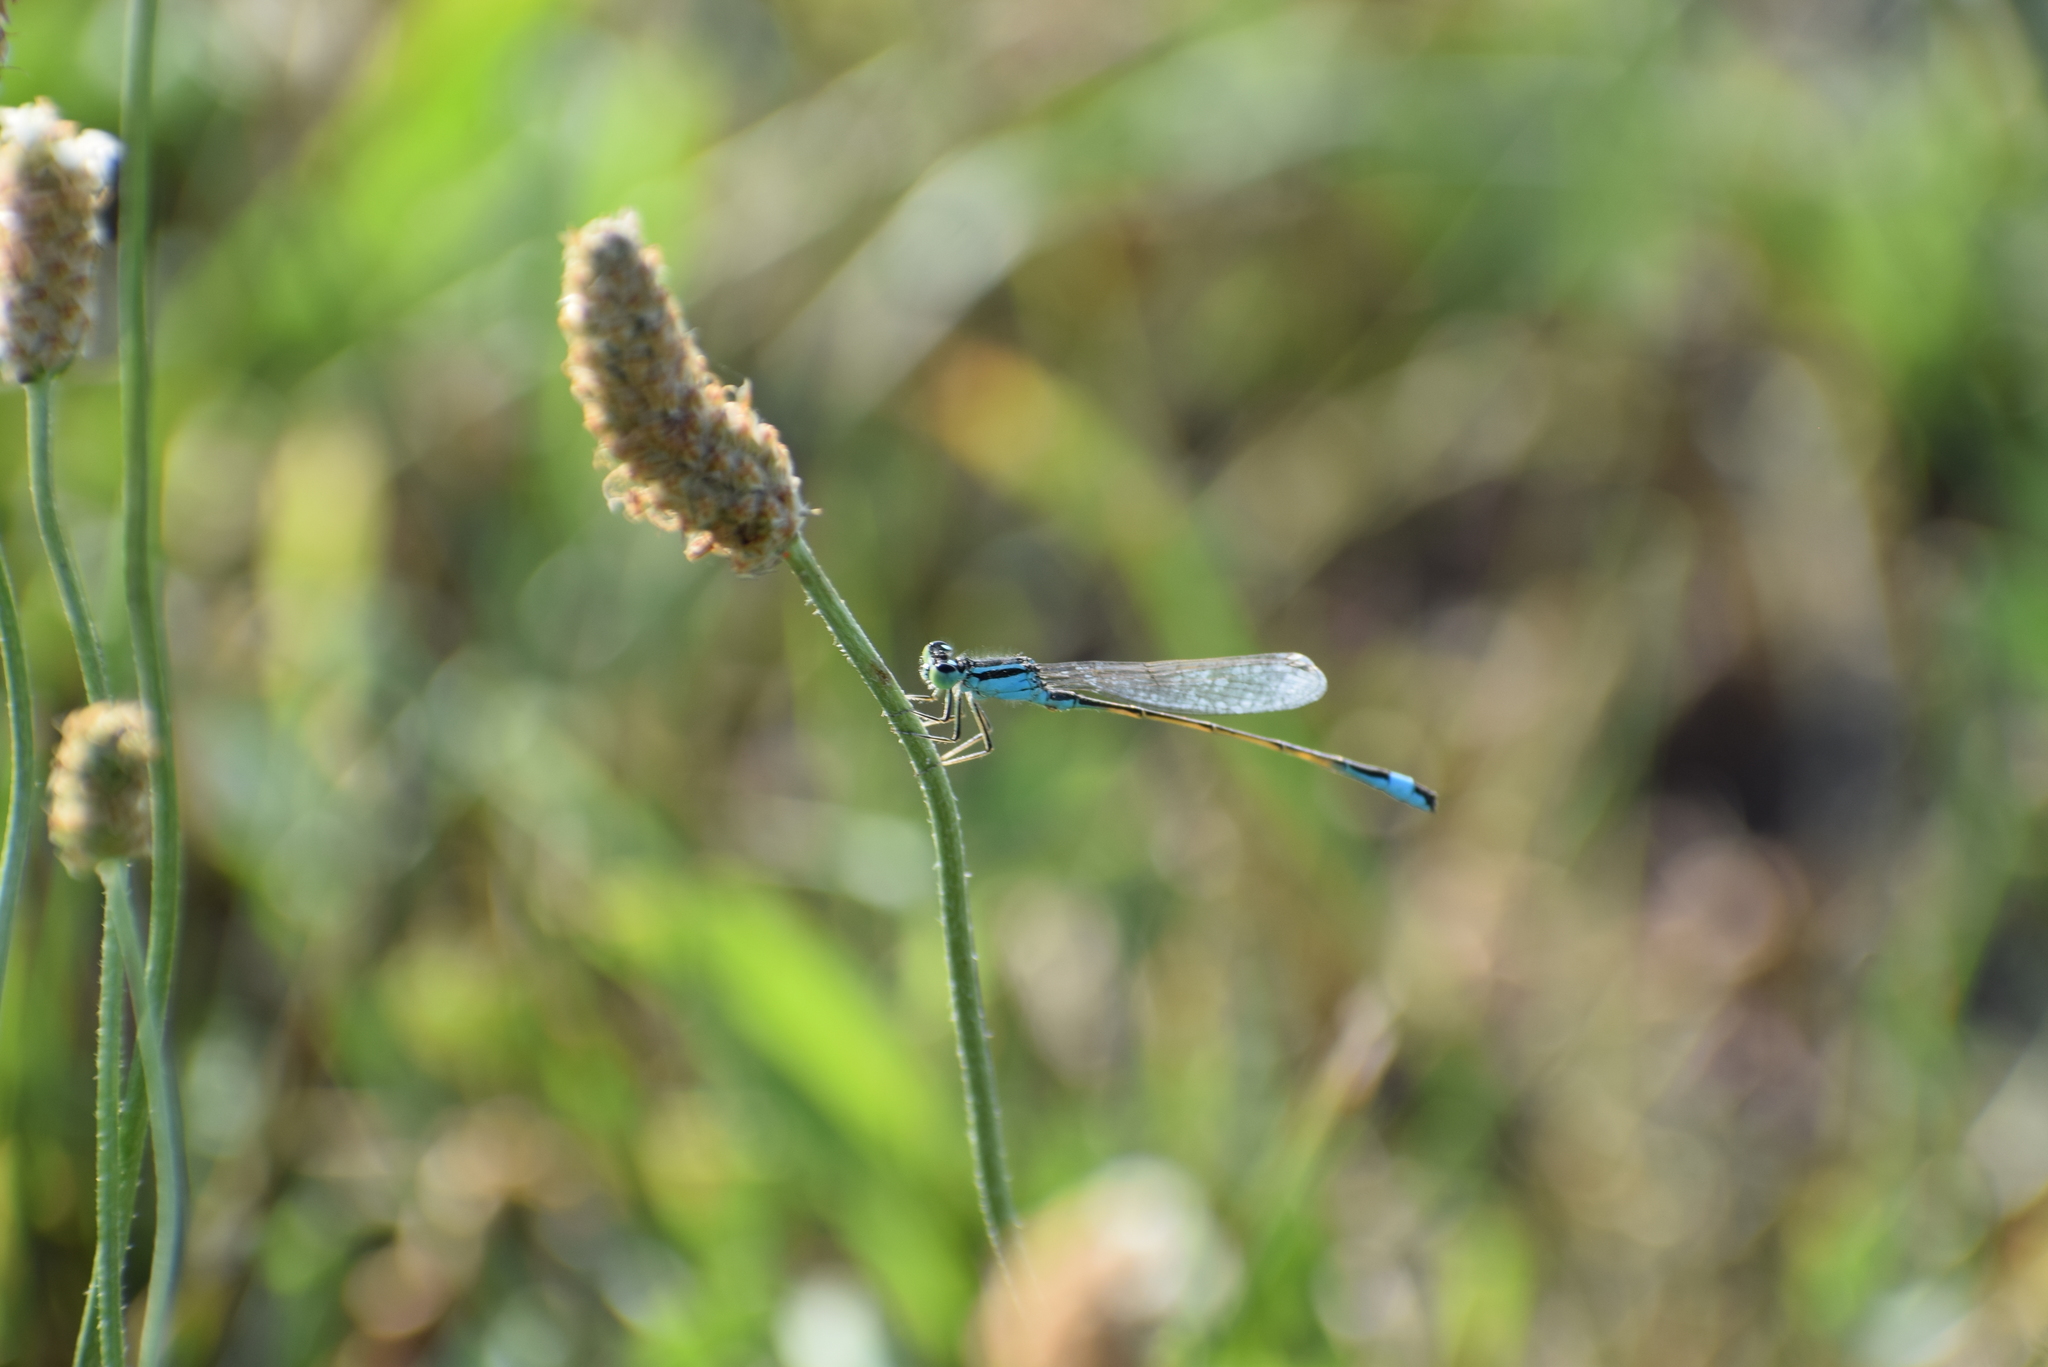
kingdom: Animalia
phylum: Arthropoda
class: Insecta
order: Odonata
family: Coenagrionidae
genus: Ischnura
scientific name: Ischnura elegans
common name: Blue-tailed damselfly
